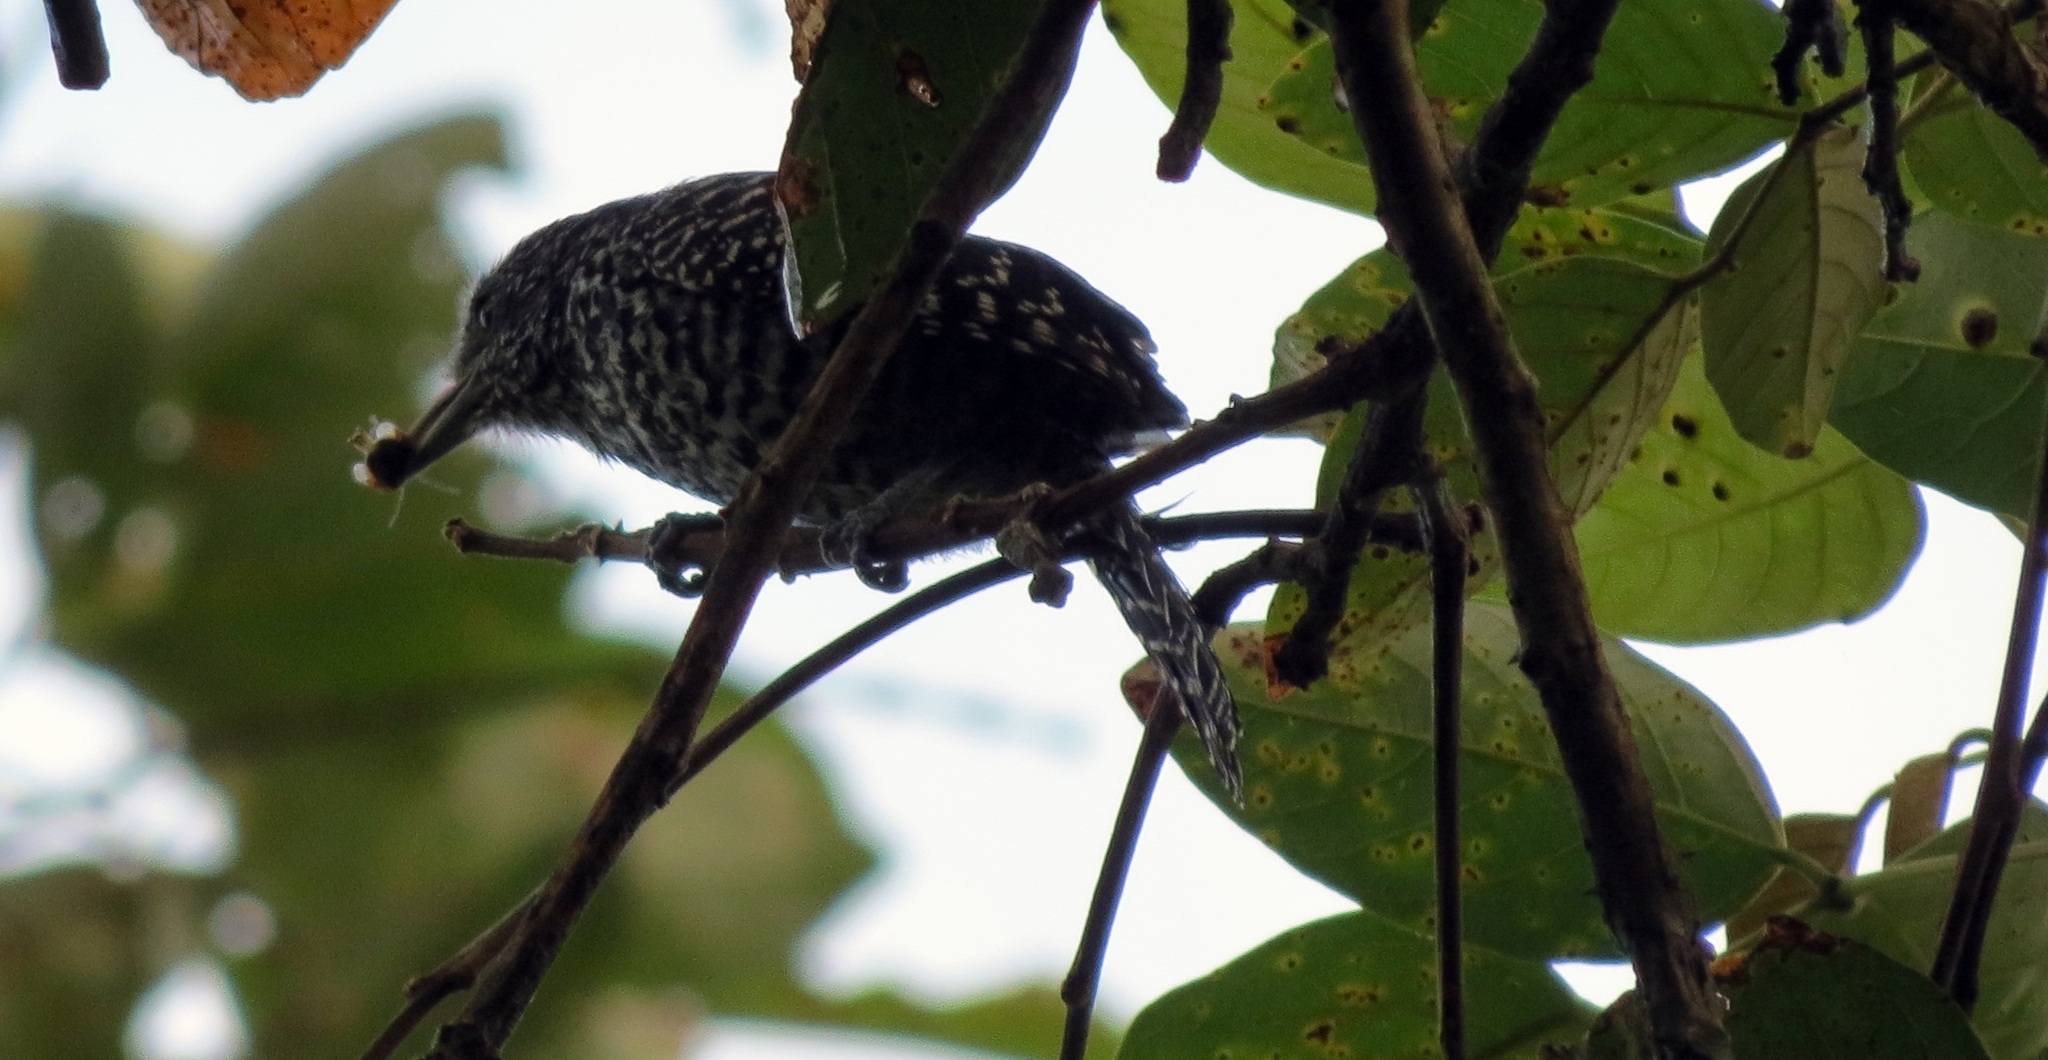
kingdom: Animalia
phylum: Chordata
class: Aves
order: Passeriformes
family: Thamnophilidae
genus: Thamnophilus
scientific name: Thamnophilus multistriatus
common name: Bar-crested antshrike
